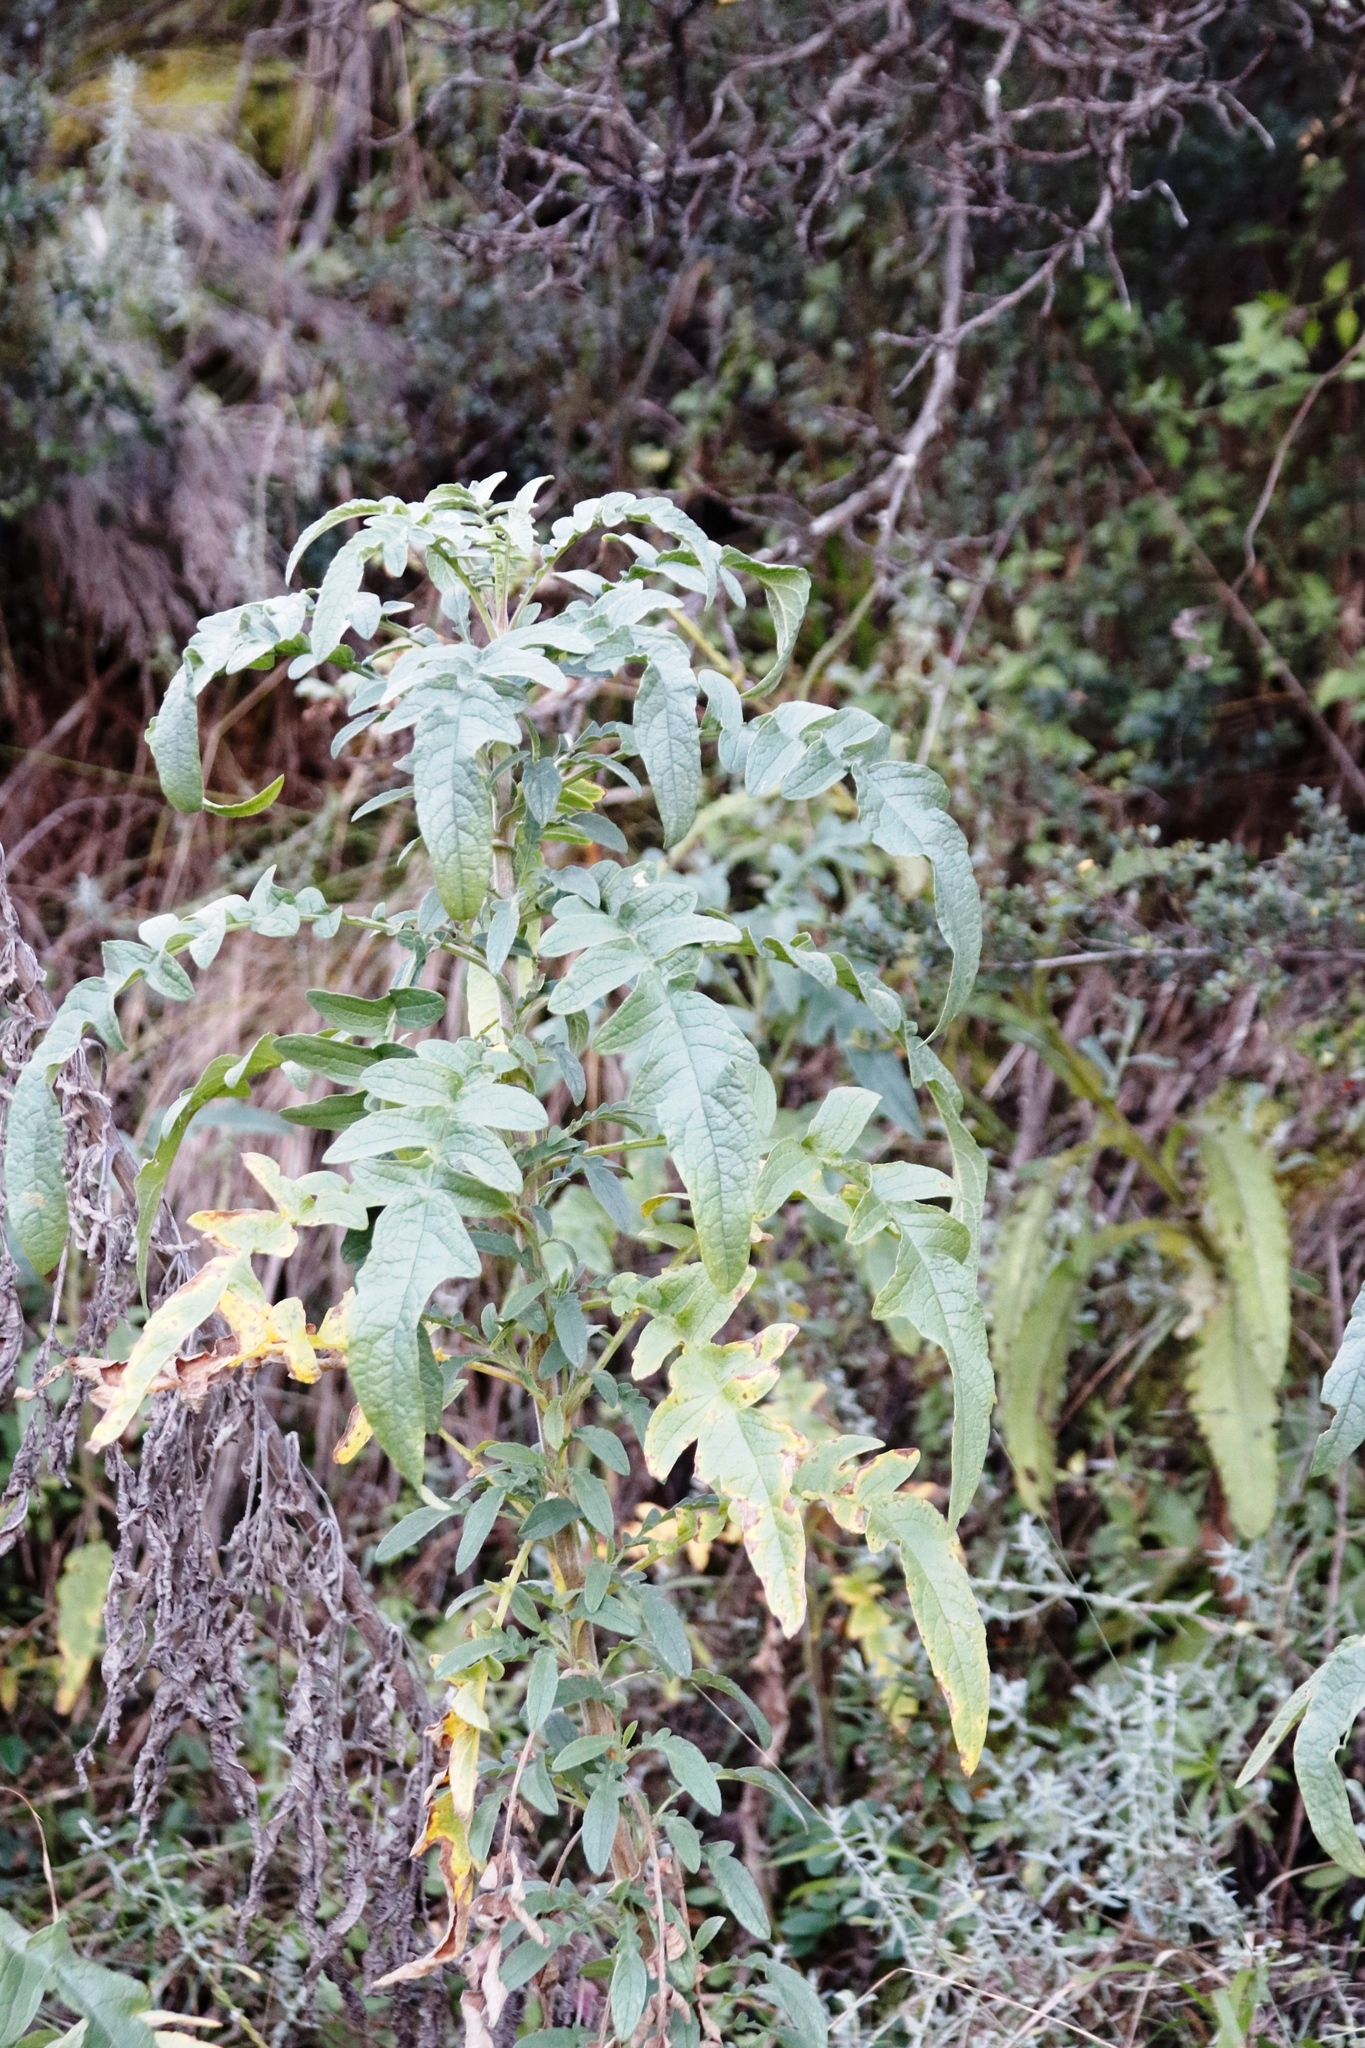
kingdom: Plantae
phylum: Tracheophyta
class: Magnoliopsida
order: Asterales
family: Asteraceae
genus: Heteromma
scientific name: Heteromma decurrens
